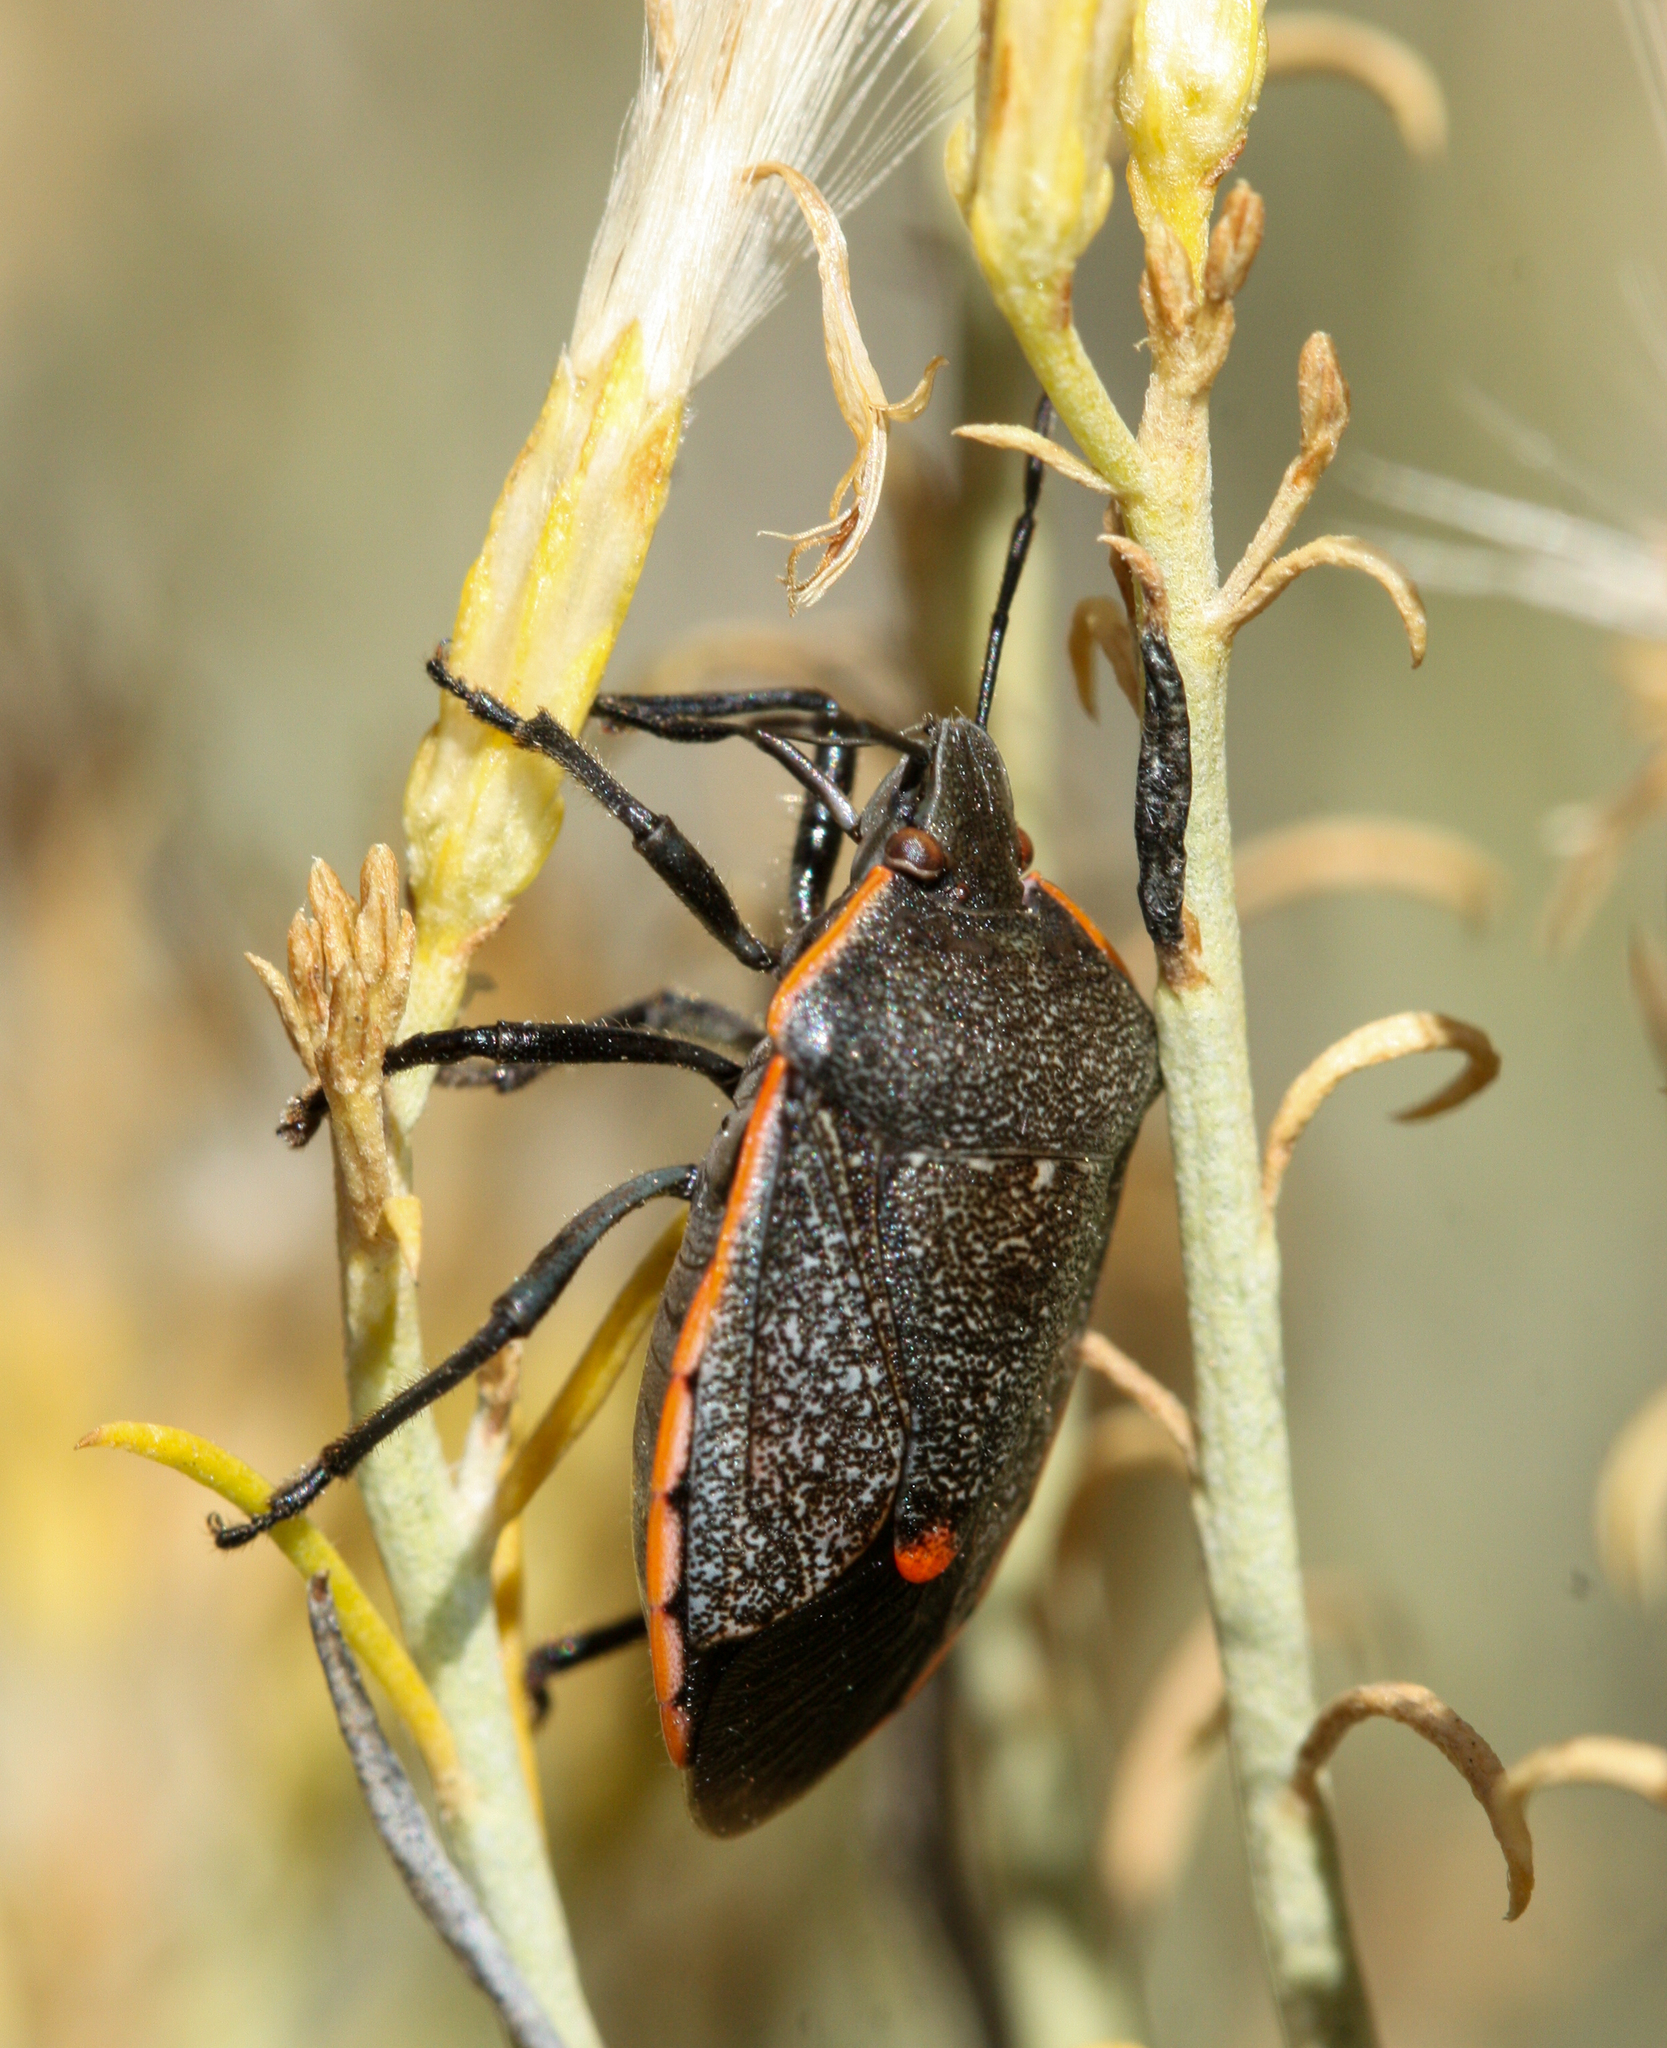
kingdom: Animalia
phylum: Arthropoda
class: Insecta
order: Hemiptera
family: Pentatomidae
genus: Chlorochroa
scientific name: Chlorochroa ligata
